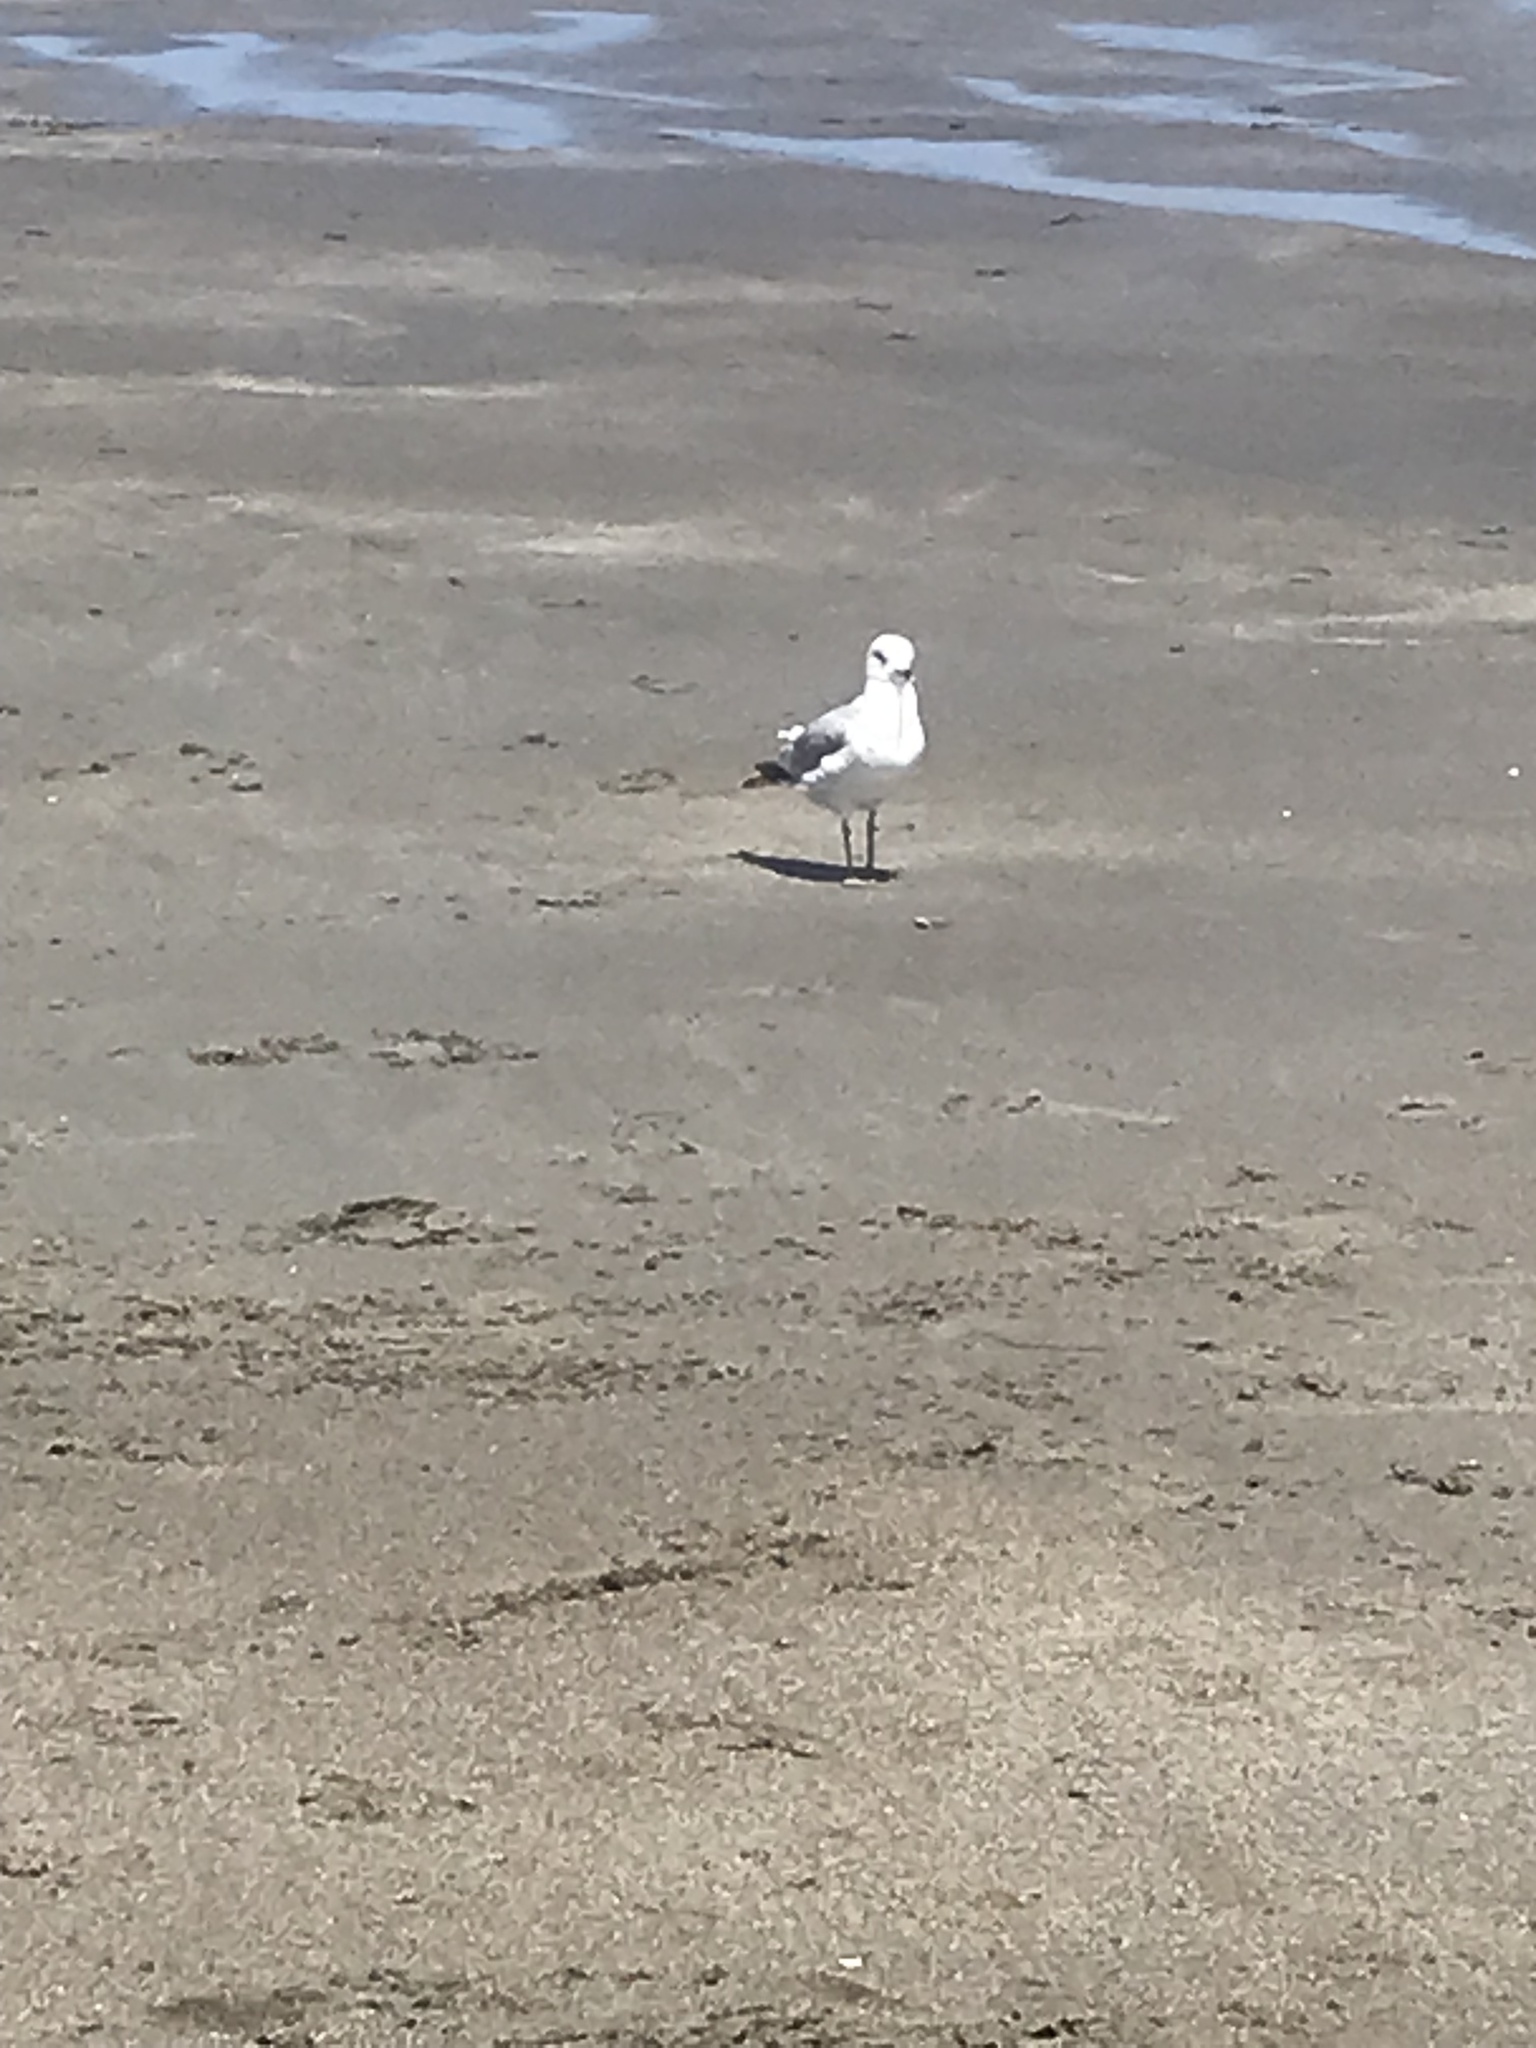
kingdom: Animalia
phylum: Chordata
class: Aves
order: Charadriiformes
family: Laridae
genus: Larus
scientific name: Larus delawarensis
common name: Ring-billed gull
